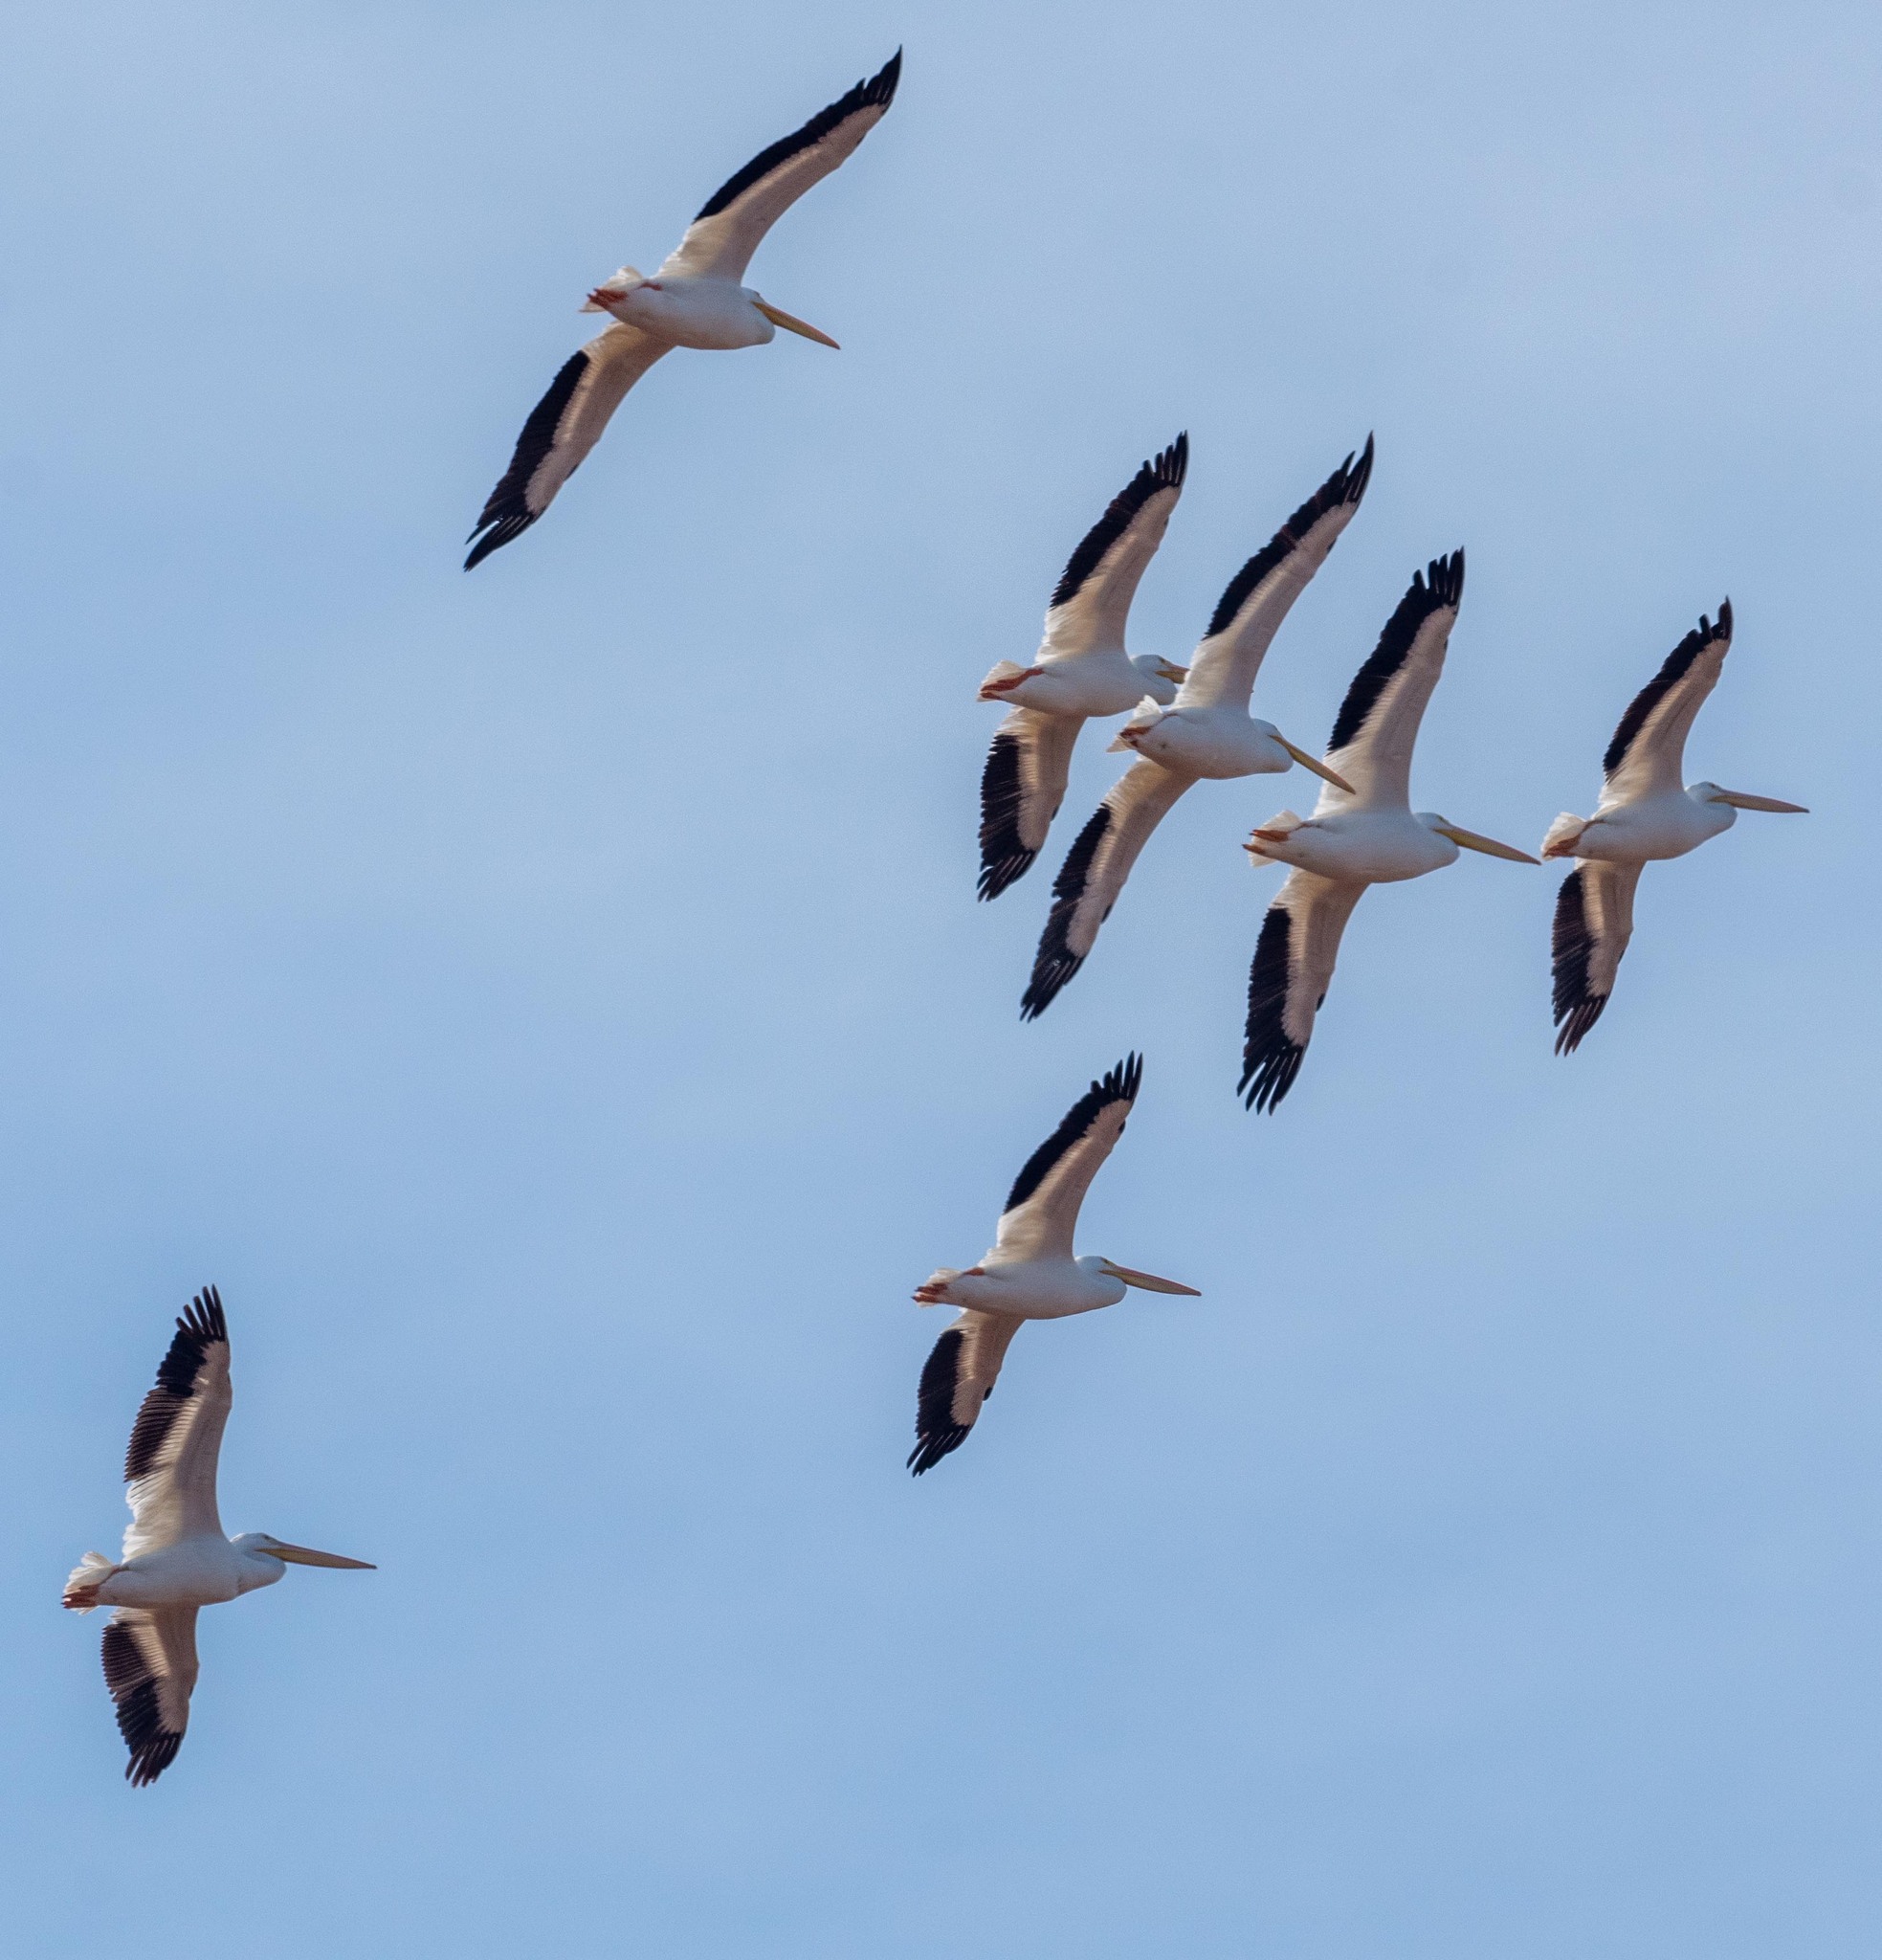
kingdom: Animalia
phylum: Chordata
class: Aves
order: Pelecaniformes
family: Pelecanidae
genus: Pelecanus
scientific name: Pelecanus erythrorhynchos
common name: American white pelican
